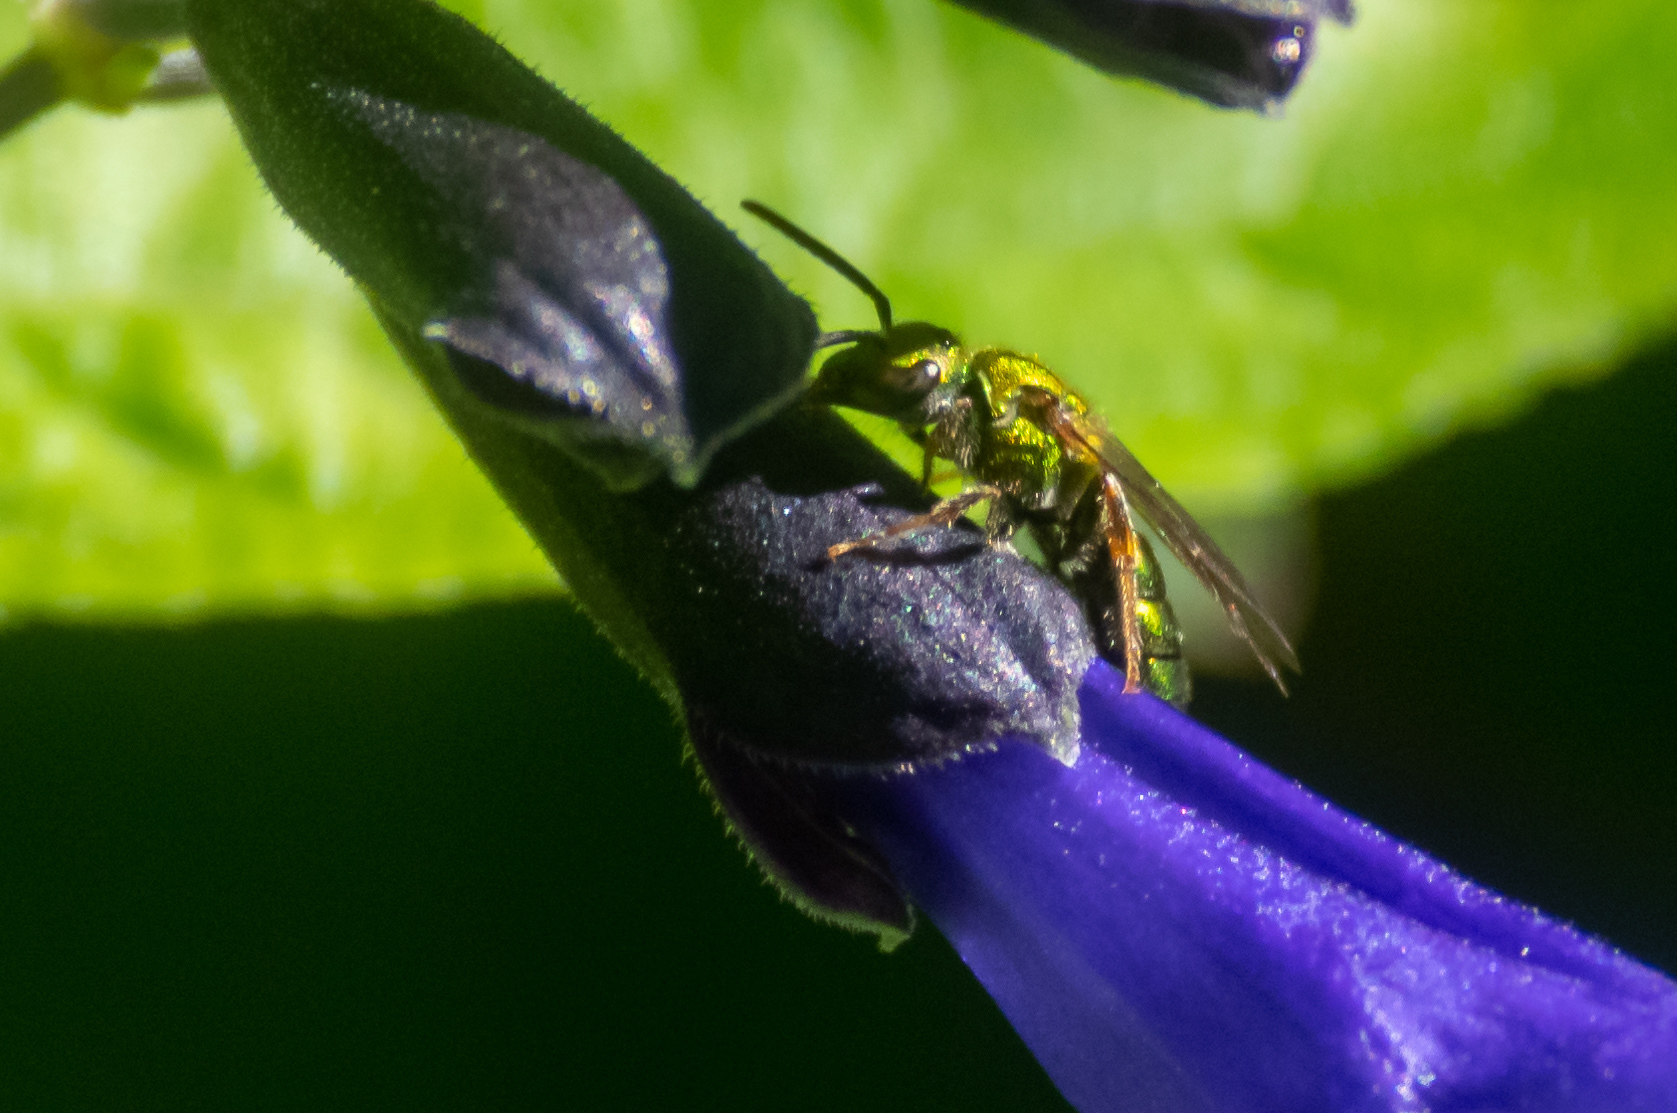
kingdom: Animalia
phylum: Arthropoda
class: Insecta
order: Hymenoptera
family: Halictidae
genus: Augochlora
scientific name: Augochlora pura
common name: Pure green sweat bee
